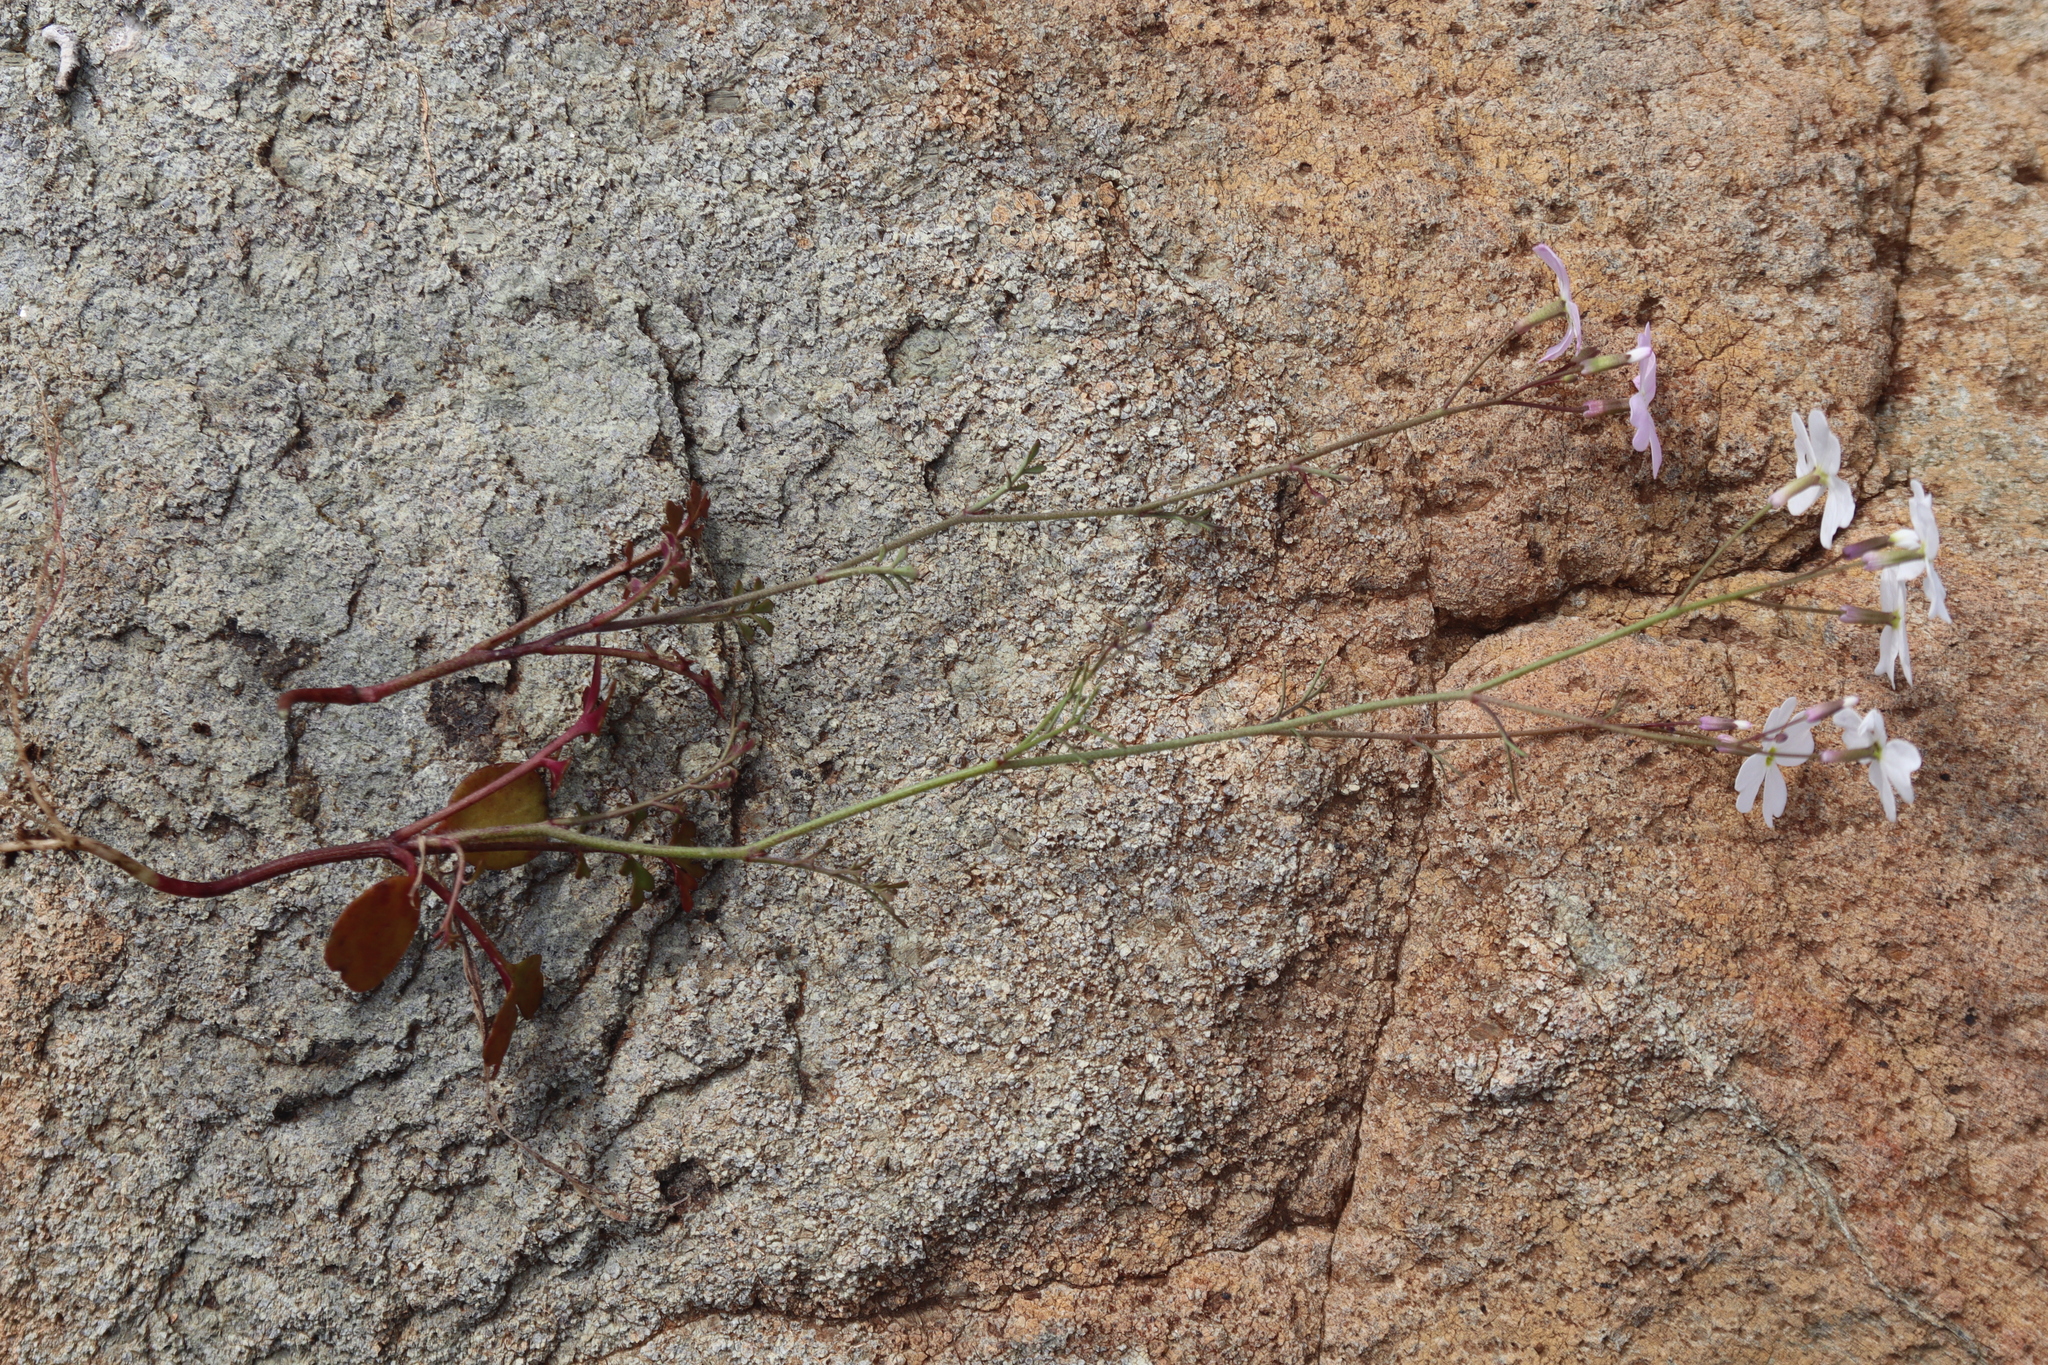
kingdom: Plantae
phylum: Tracheophyta
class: Magnoliopsida
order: Brassicales
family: Brassicaceae
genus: Ricotia
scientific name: Ricotia sinuata
